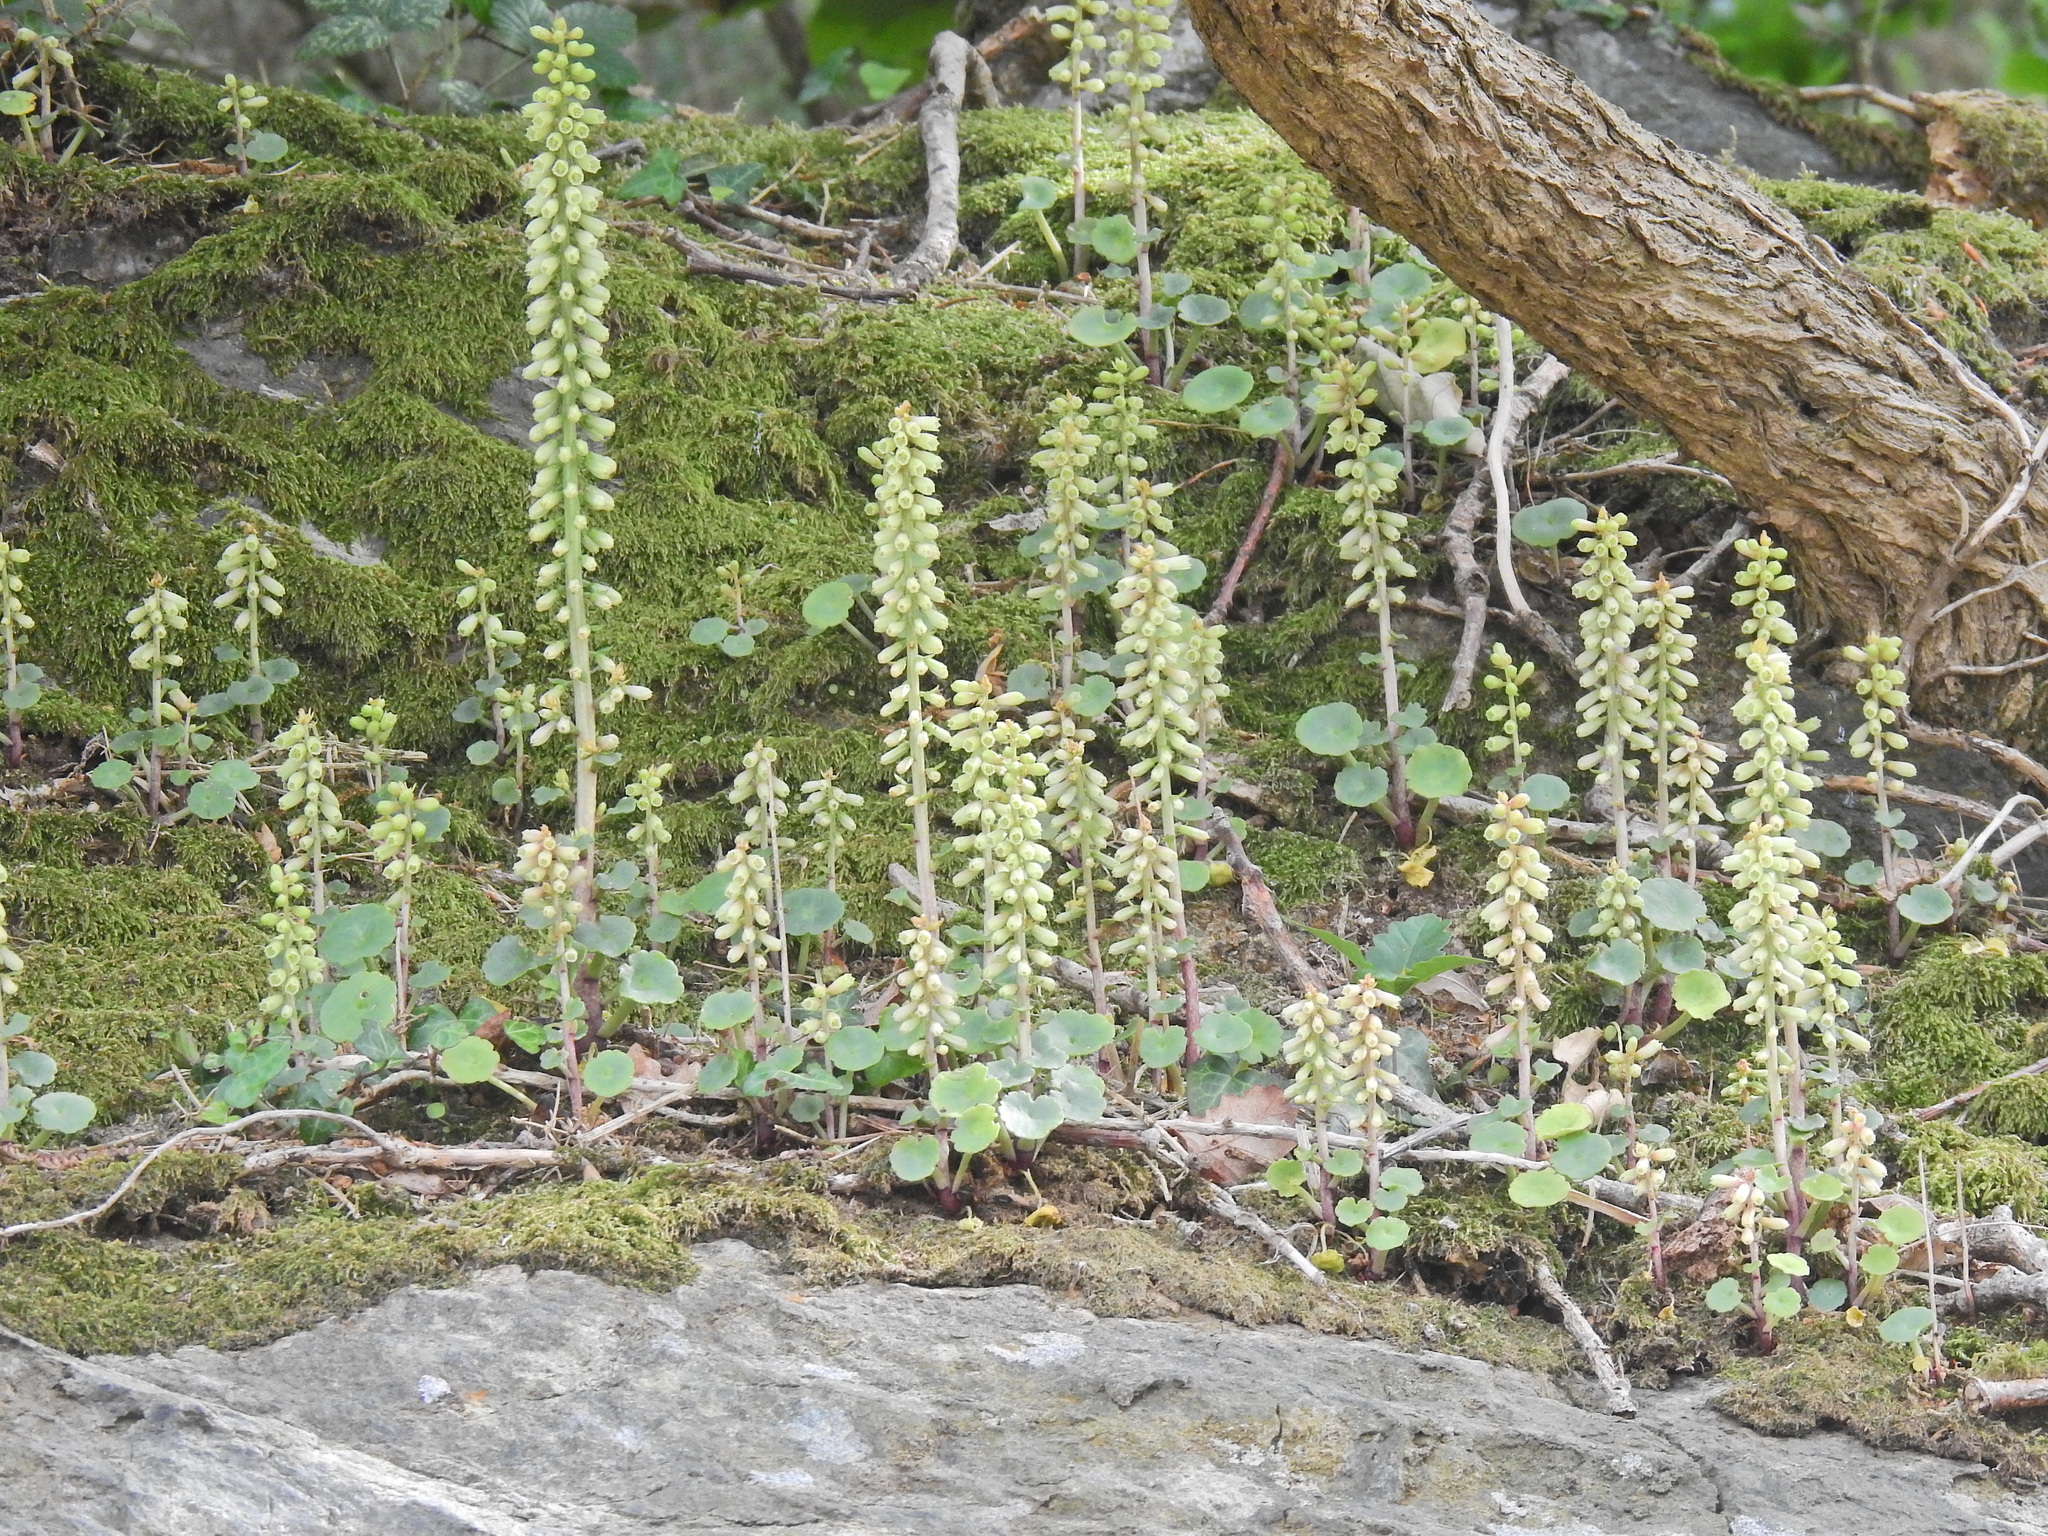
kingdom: Plantae
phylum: Tracheophyta
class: Magnoliopsida
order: Saxifragales
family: Crassulaceae
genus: Umbilicus
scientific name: Umbilicus rupestris
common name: Navelwort
